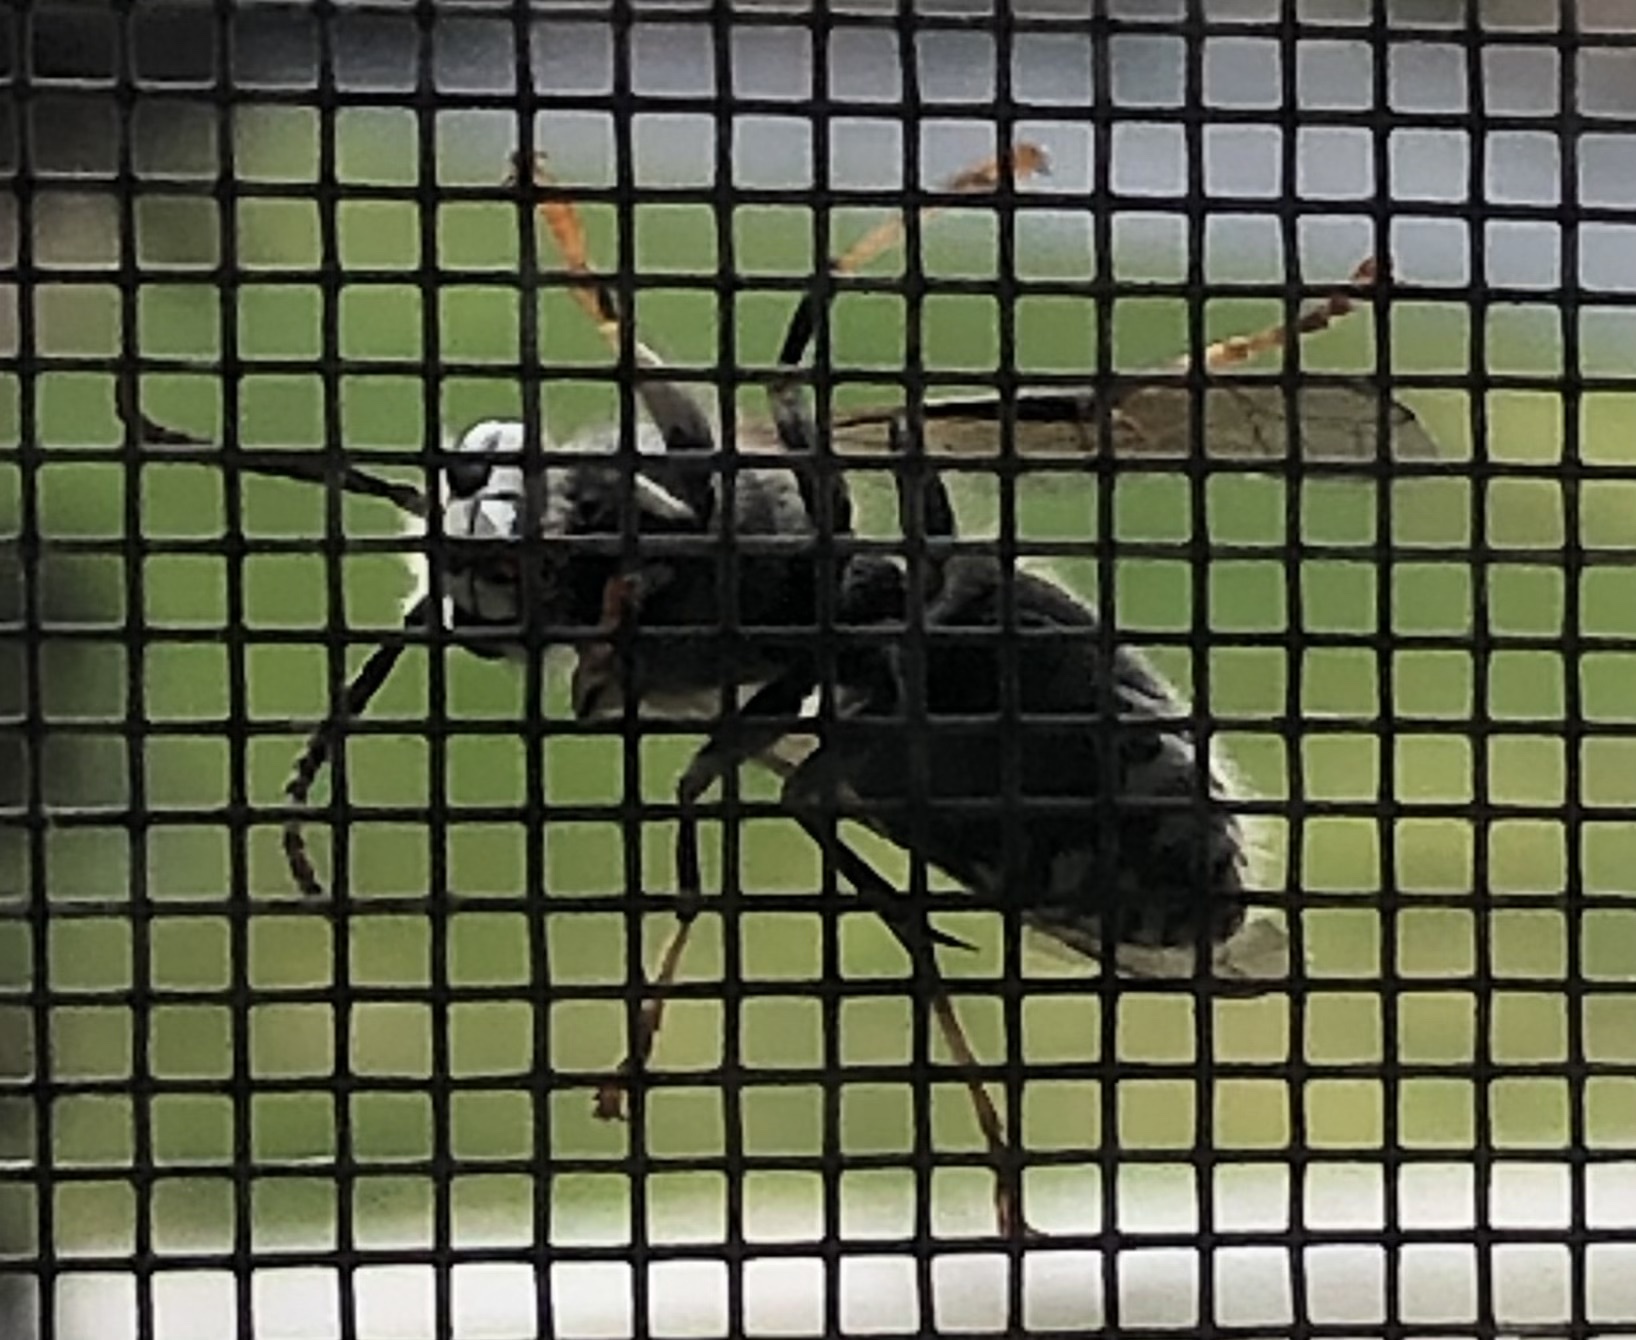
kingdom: Animalia
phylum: Arthropoda
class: Insecta
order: Hymenoptera
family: Vespidae
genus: Dolichovespula
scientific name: Dolichovespula maculata
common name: Bald-faced hornet
